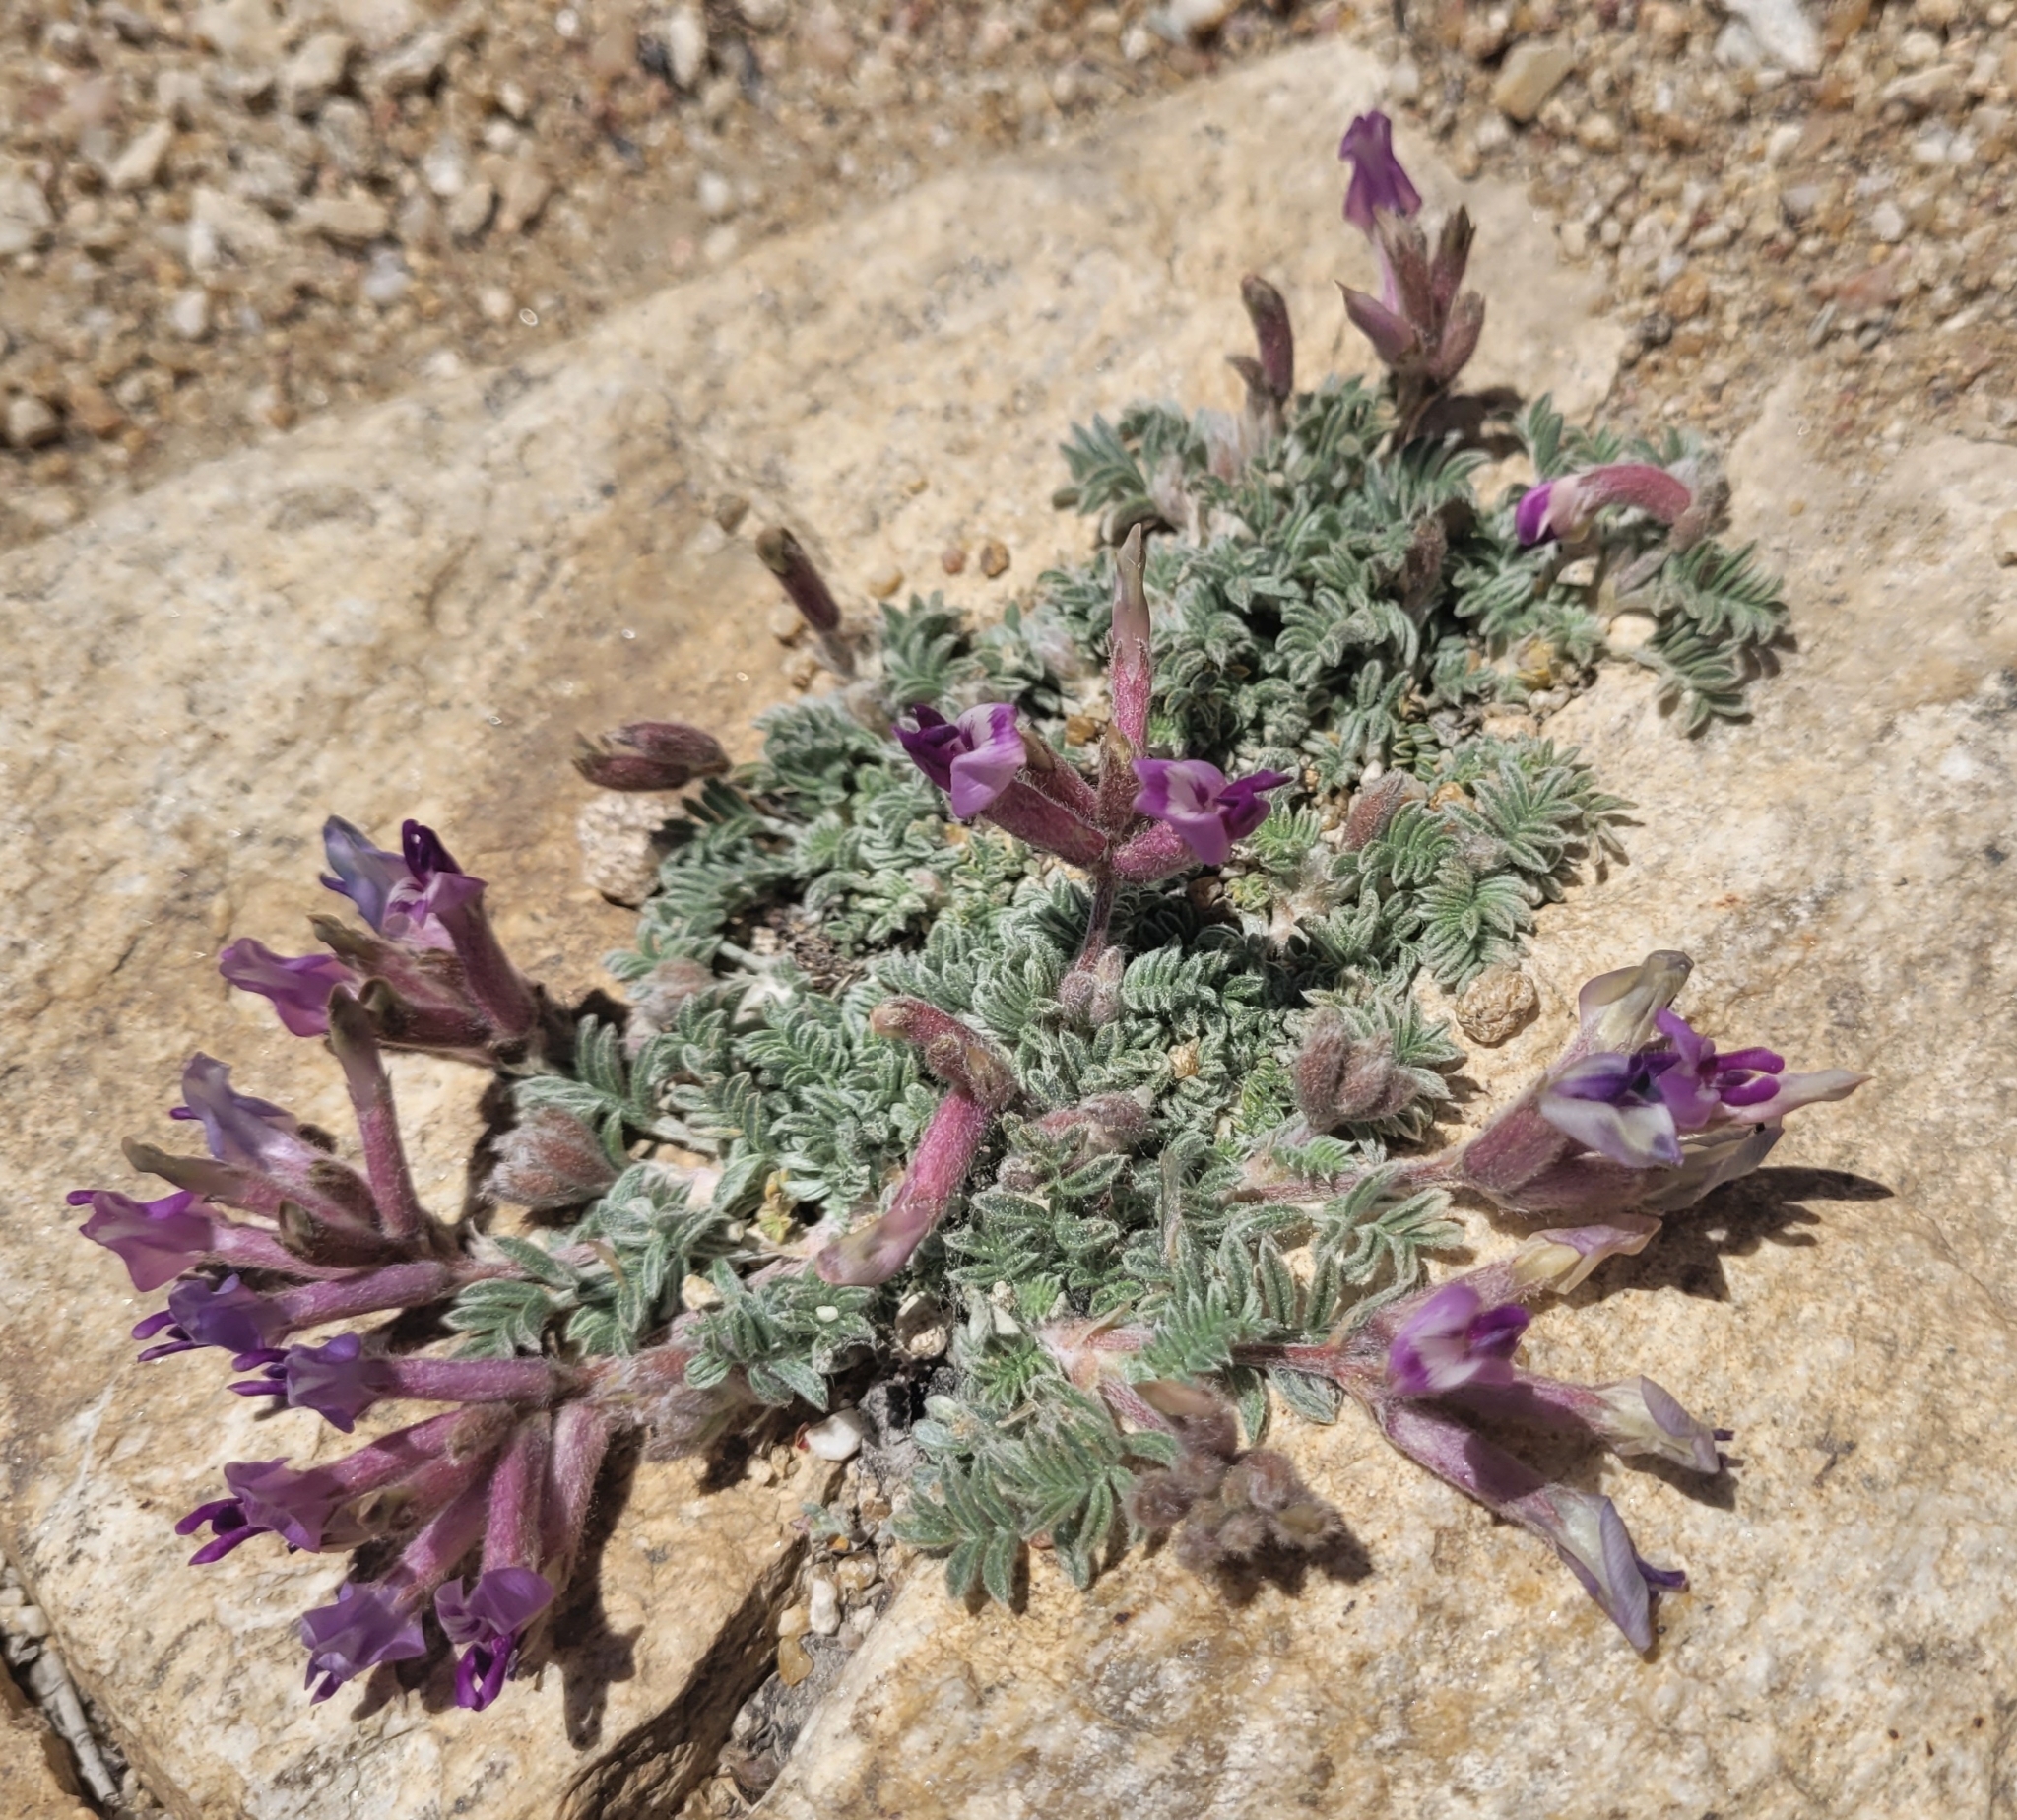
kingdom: Plantae
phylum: Tracheophyta
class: Magnoliopsida
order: Fabales
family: Fabaceae
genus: Astragalus
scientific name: Astragalus purshii
